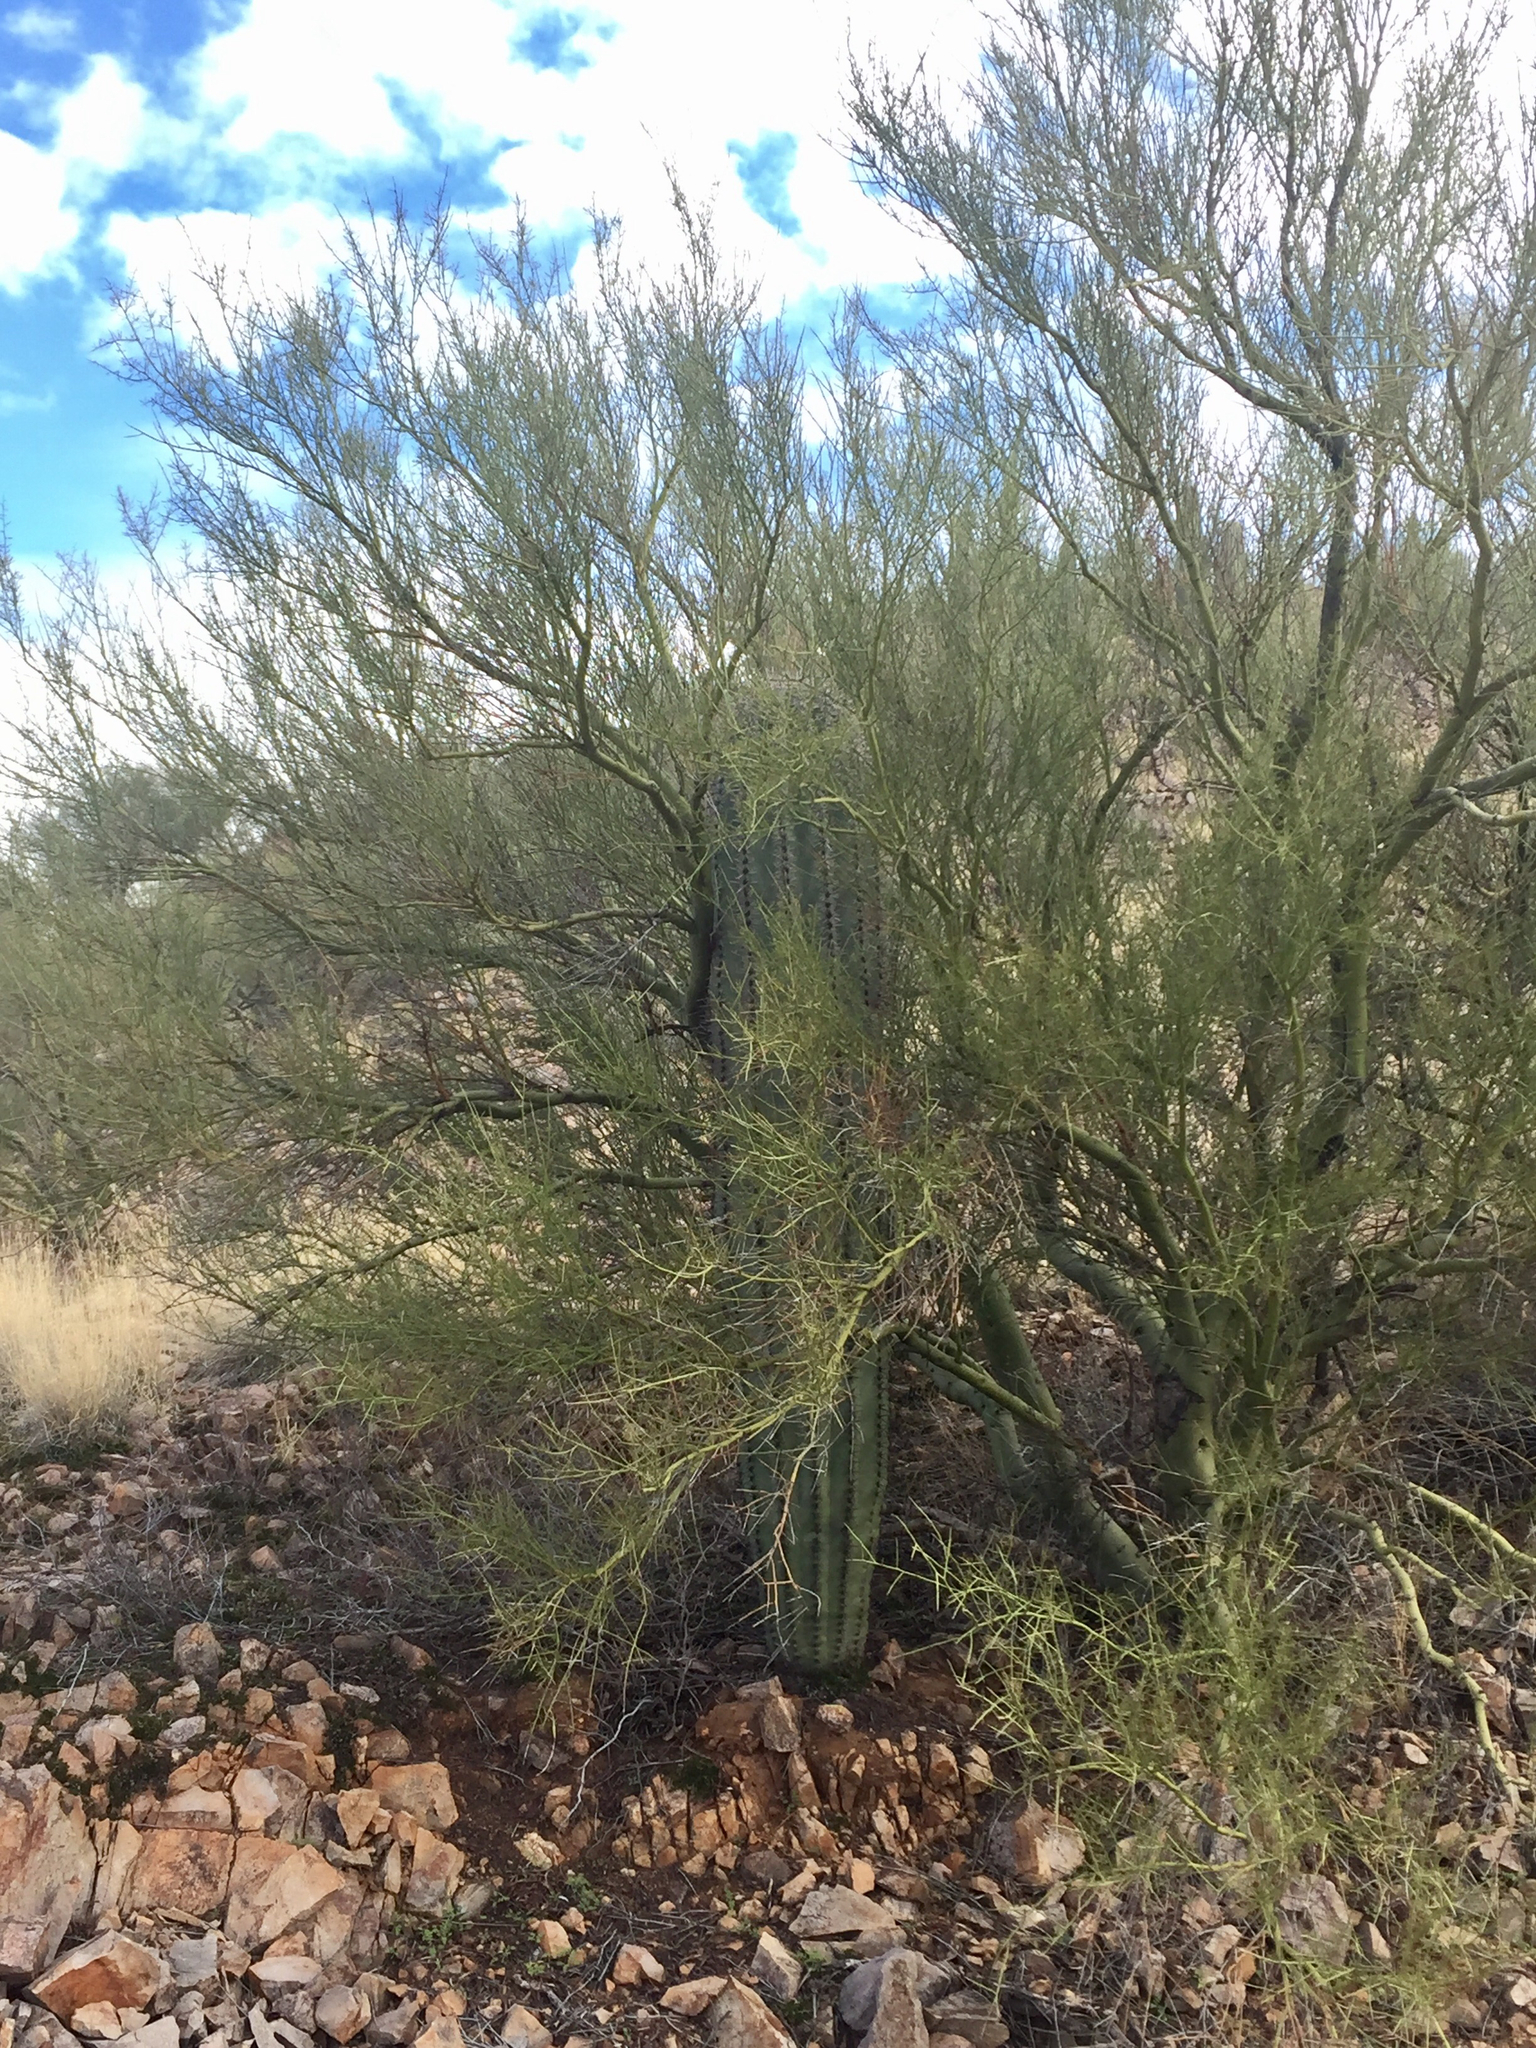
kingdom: Plantae
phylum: Tracheophyta
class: Magnoliopsida
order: Fabales
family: Fabaceae
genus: Parkinsonia
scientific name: Parkinsonia microphylla
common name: Yellow paloverde
